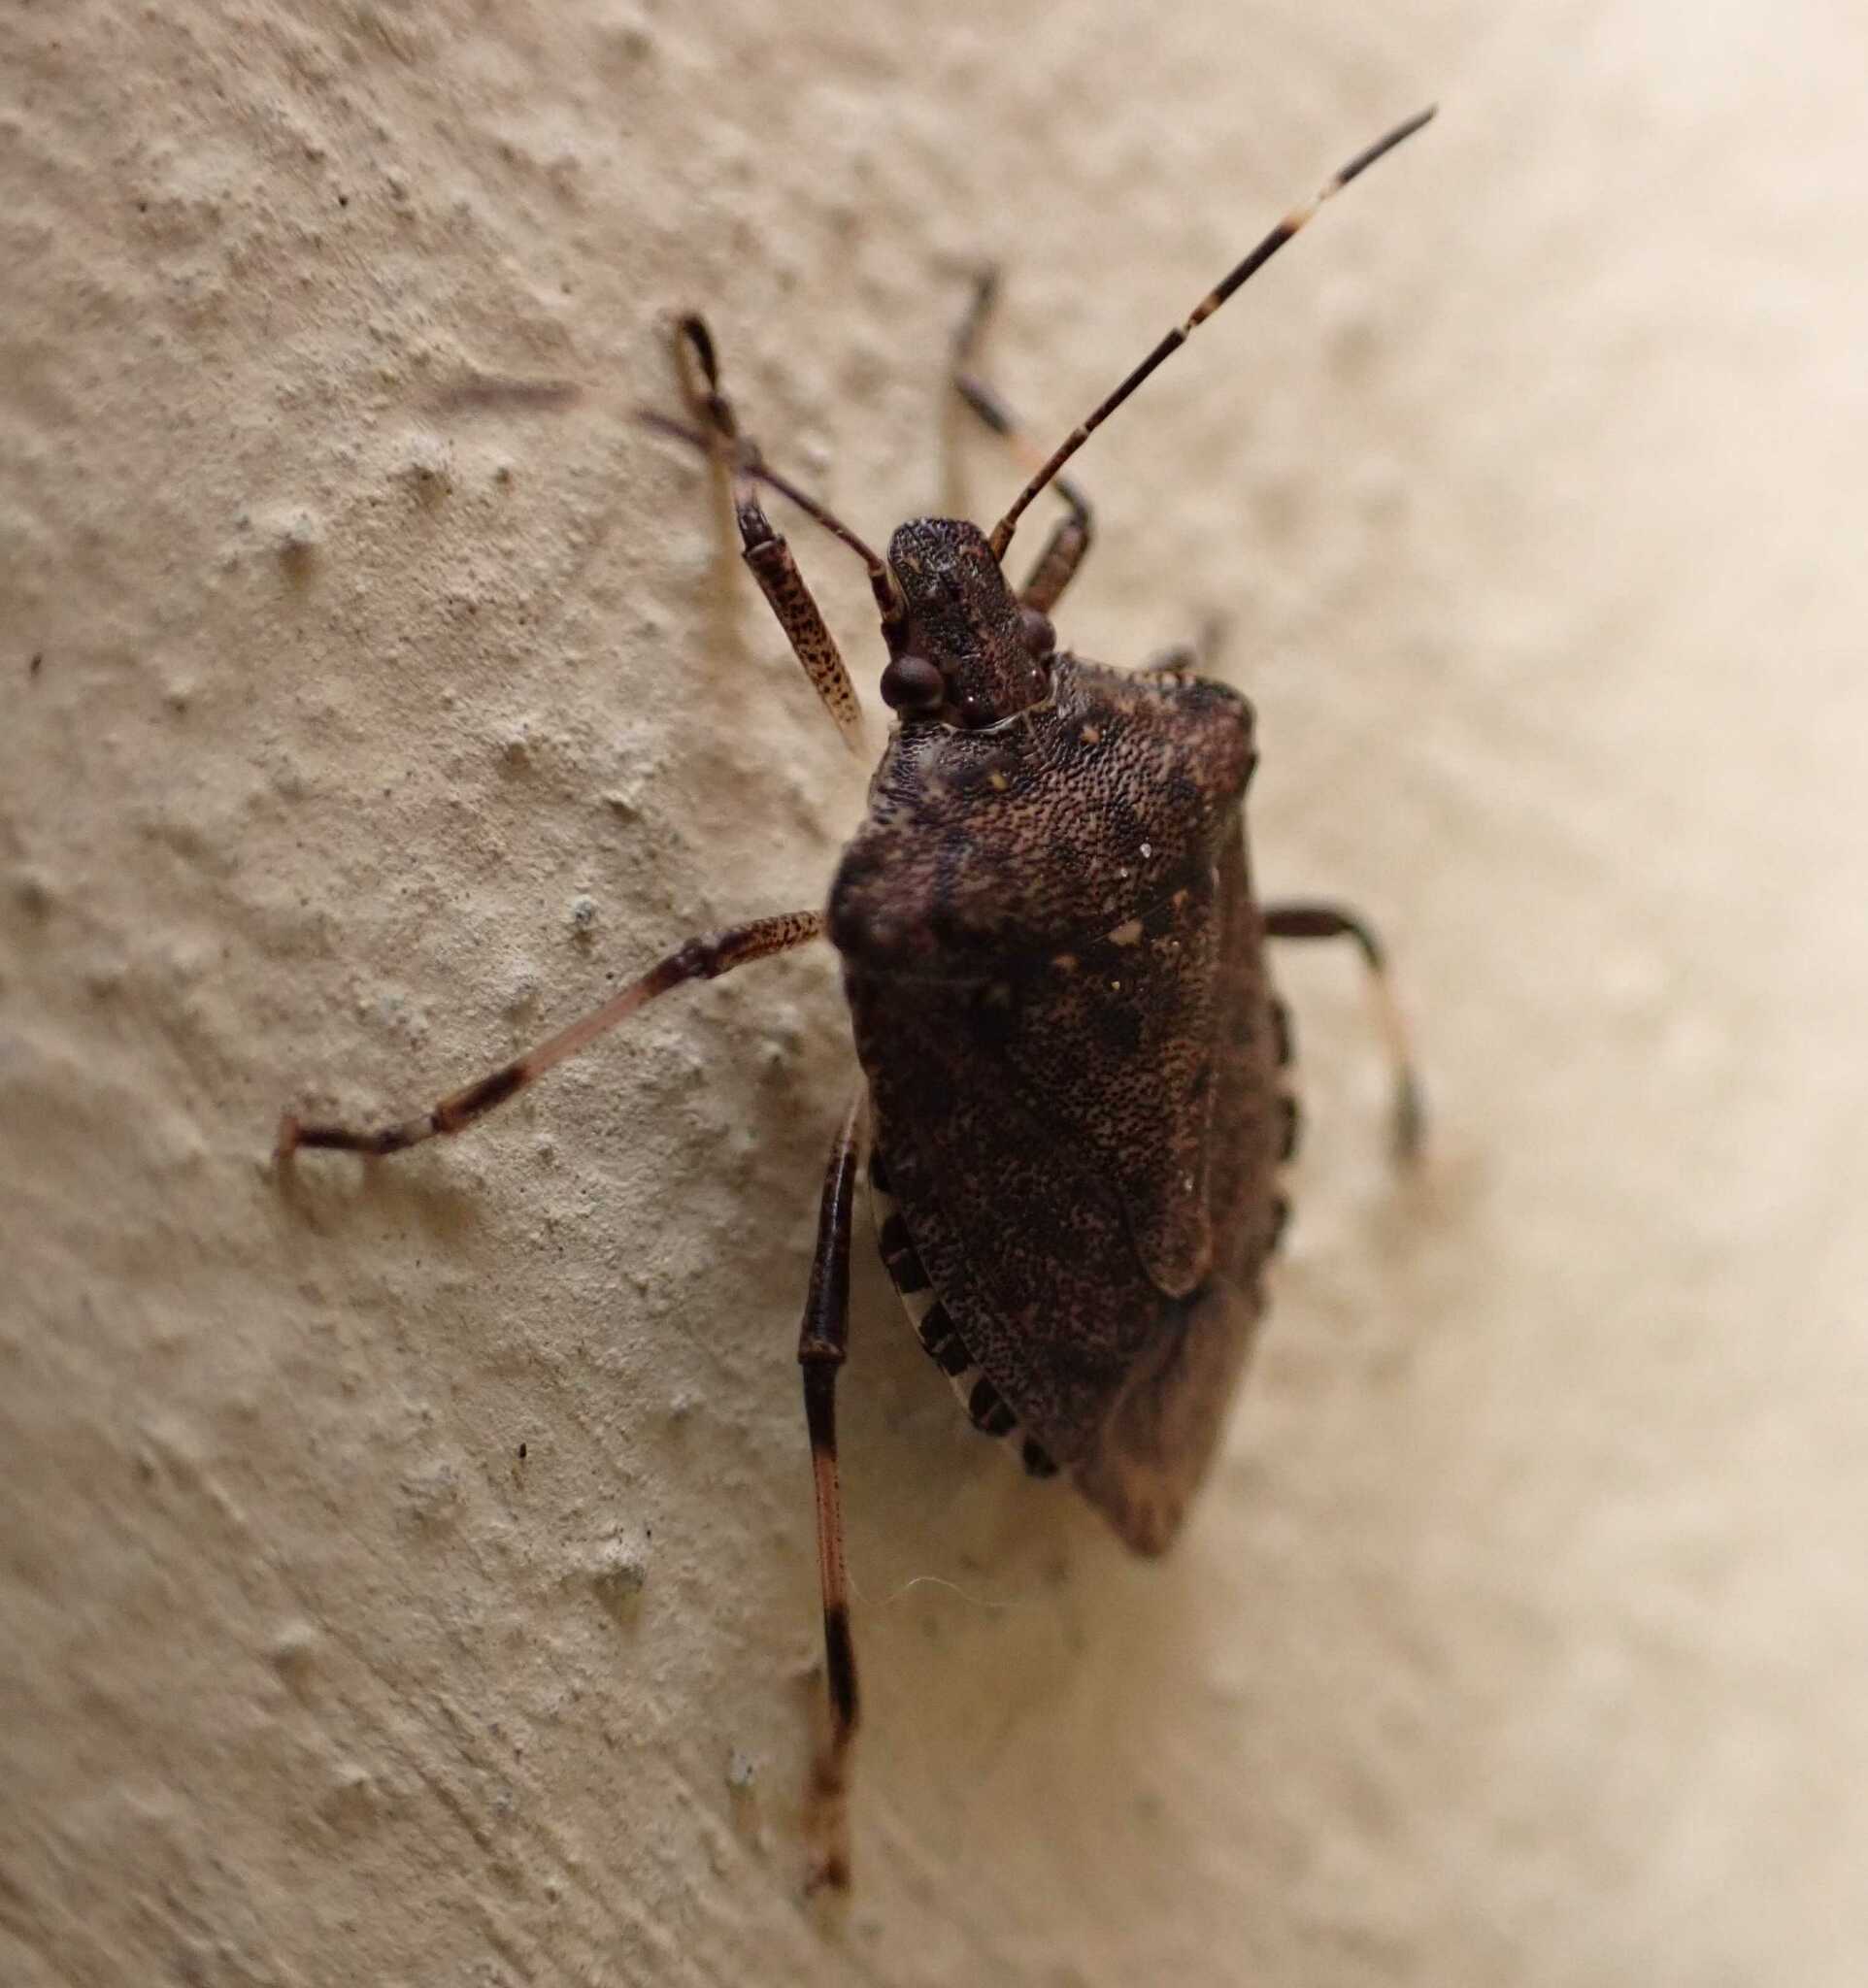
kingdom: Animalia
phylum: Arthropoda
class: Insecta
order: Hemiptera
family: Pentatomidae
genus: Halyomorpha
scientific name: Halyomorpha halys
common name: Brown marmorated stink bug
